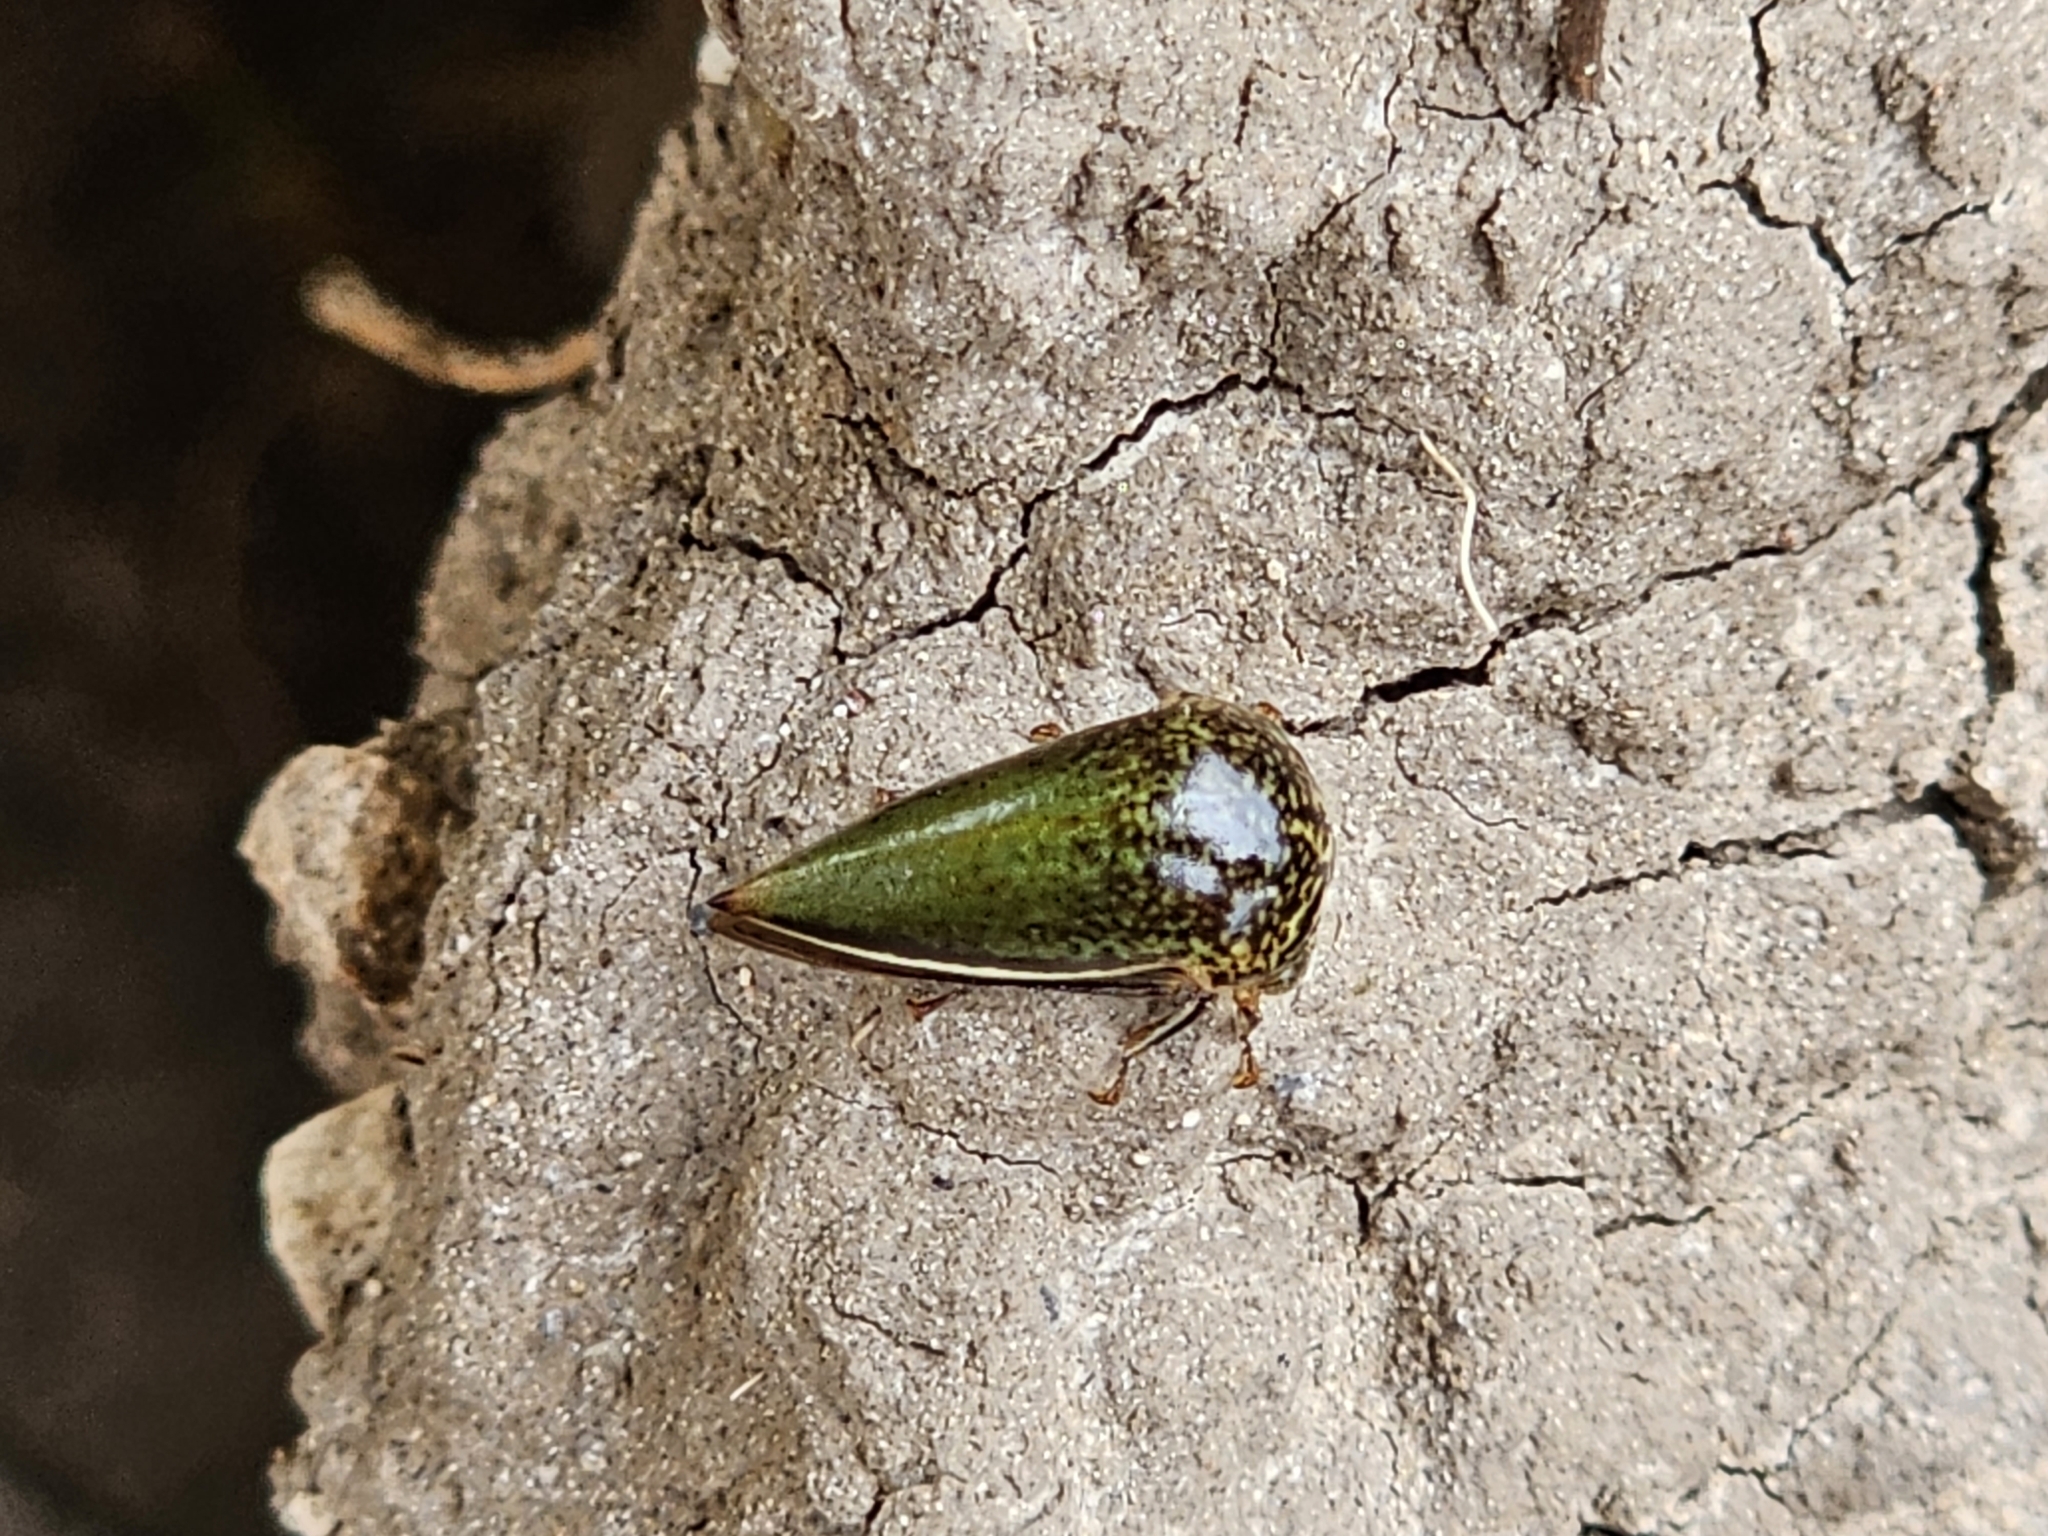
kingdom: Animalia
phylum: Arthropoda
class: Insecta
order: Hemiptera
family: Membracidae
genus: Stictopelta
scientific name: Stictopelta marmorata
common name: Treehopper
